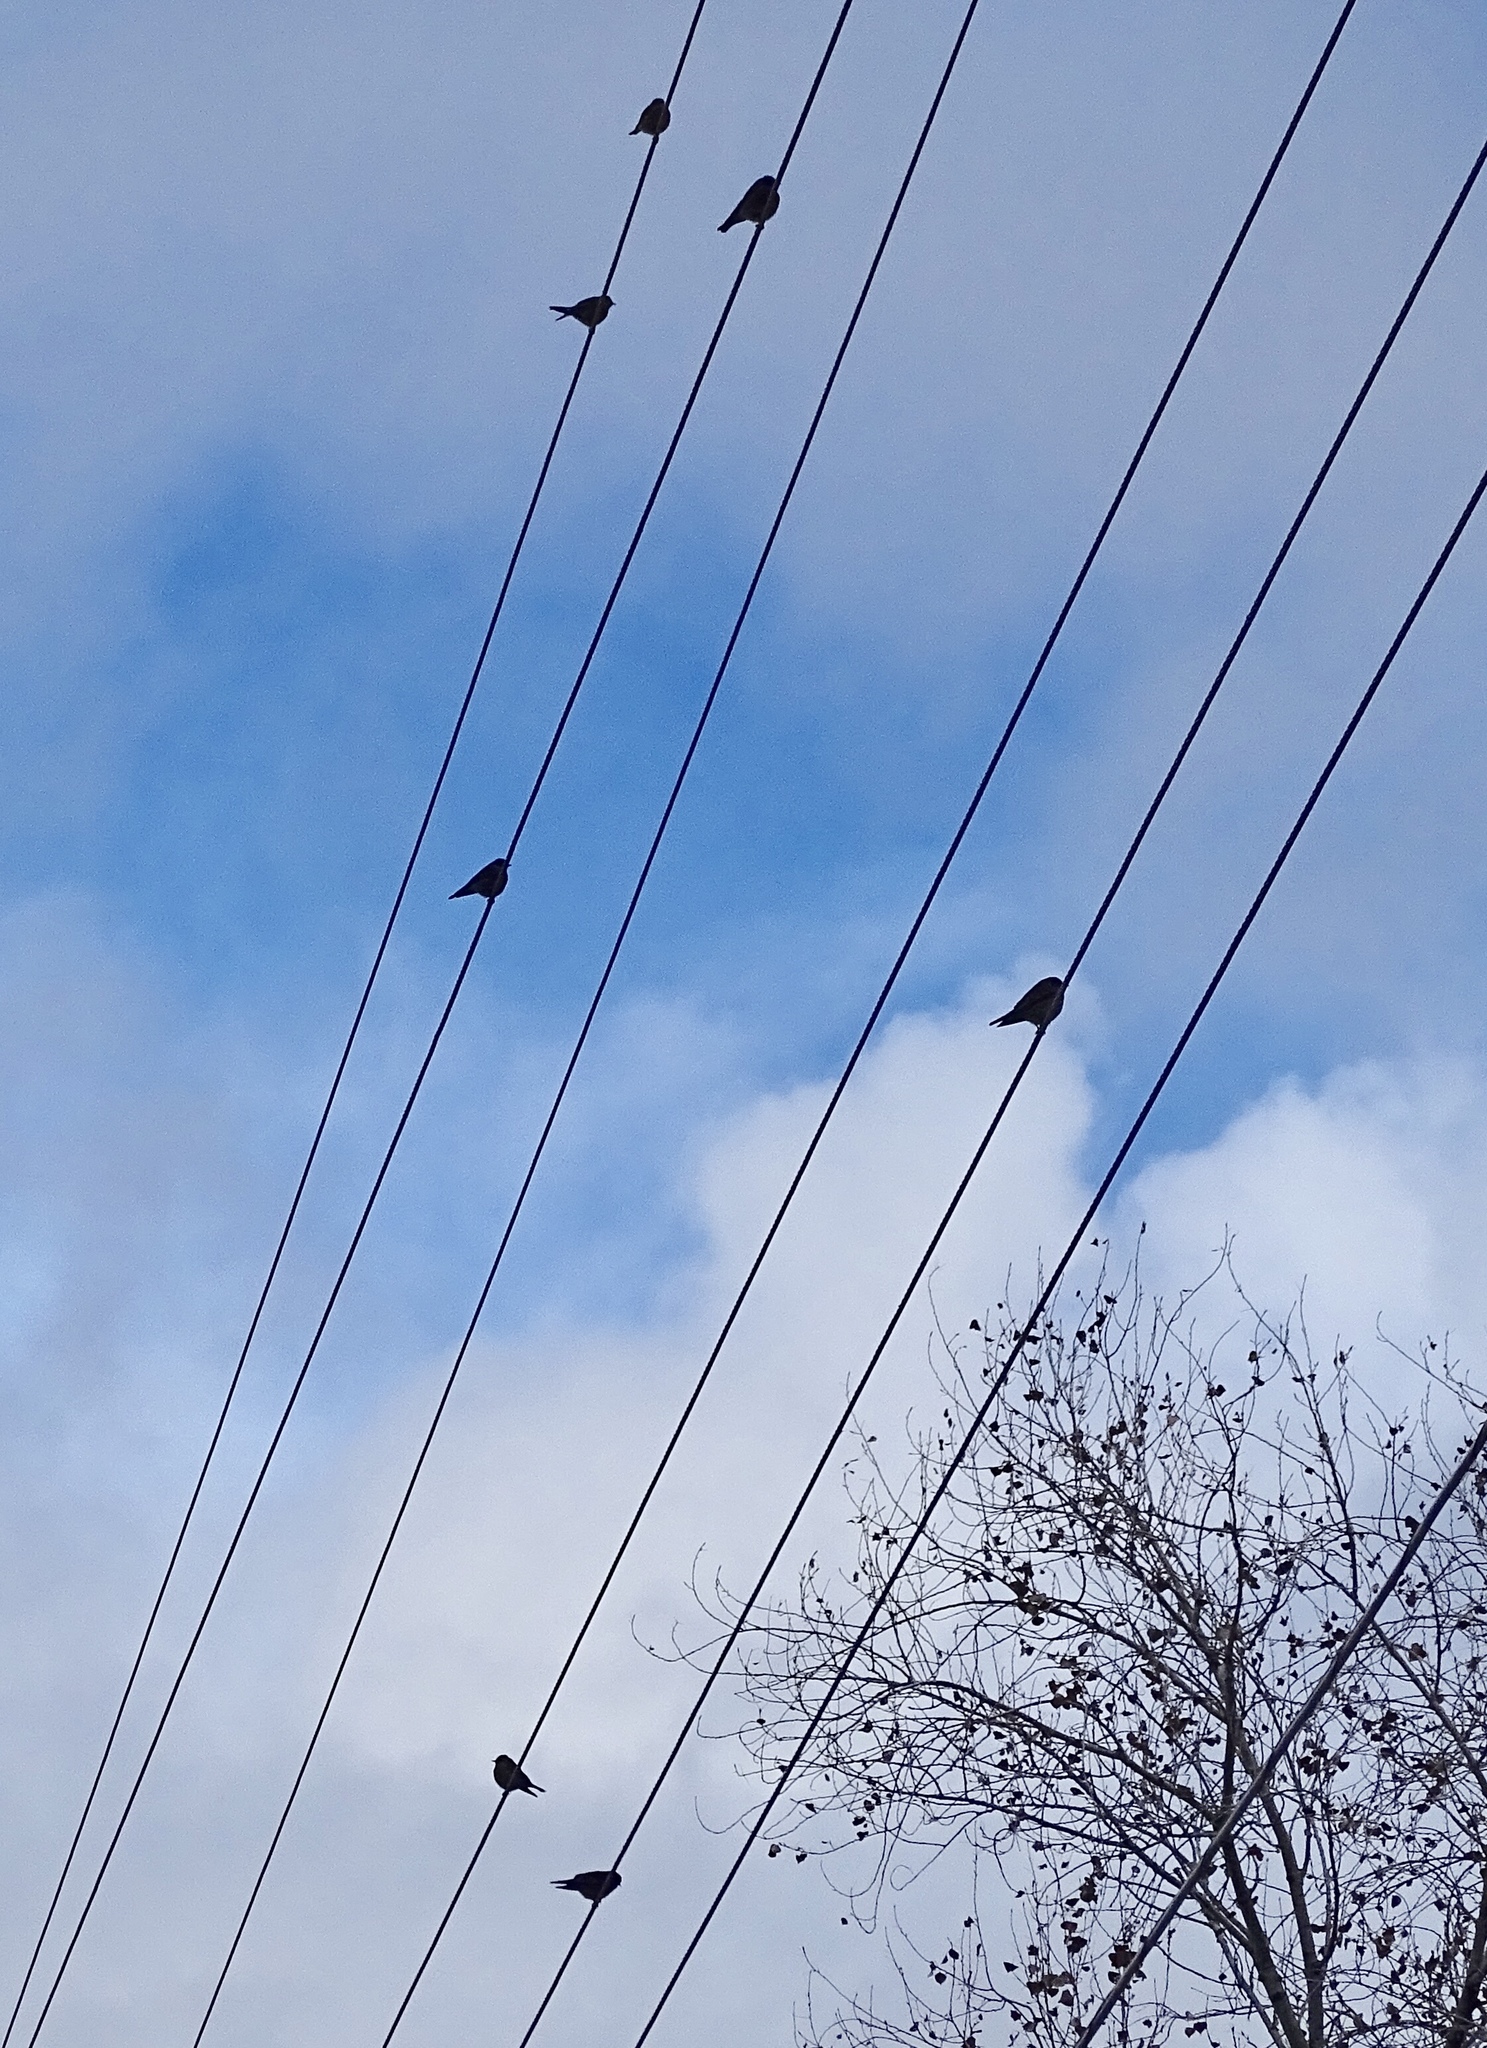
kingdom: Animalia
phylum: Chordata
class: Aves
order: Passeriformes
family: Turdidae
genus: Sialia
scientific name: Sialia mexicana
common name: Western bluebird
